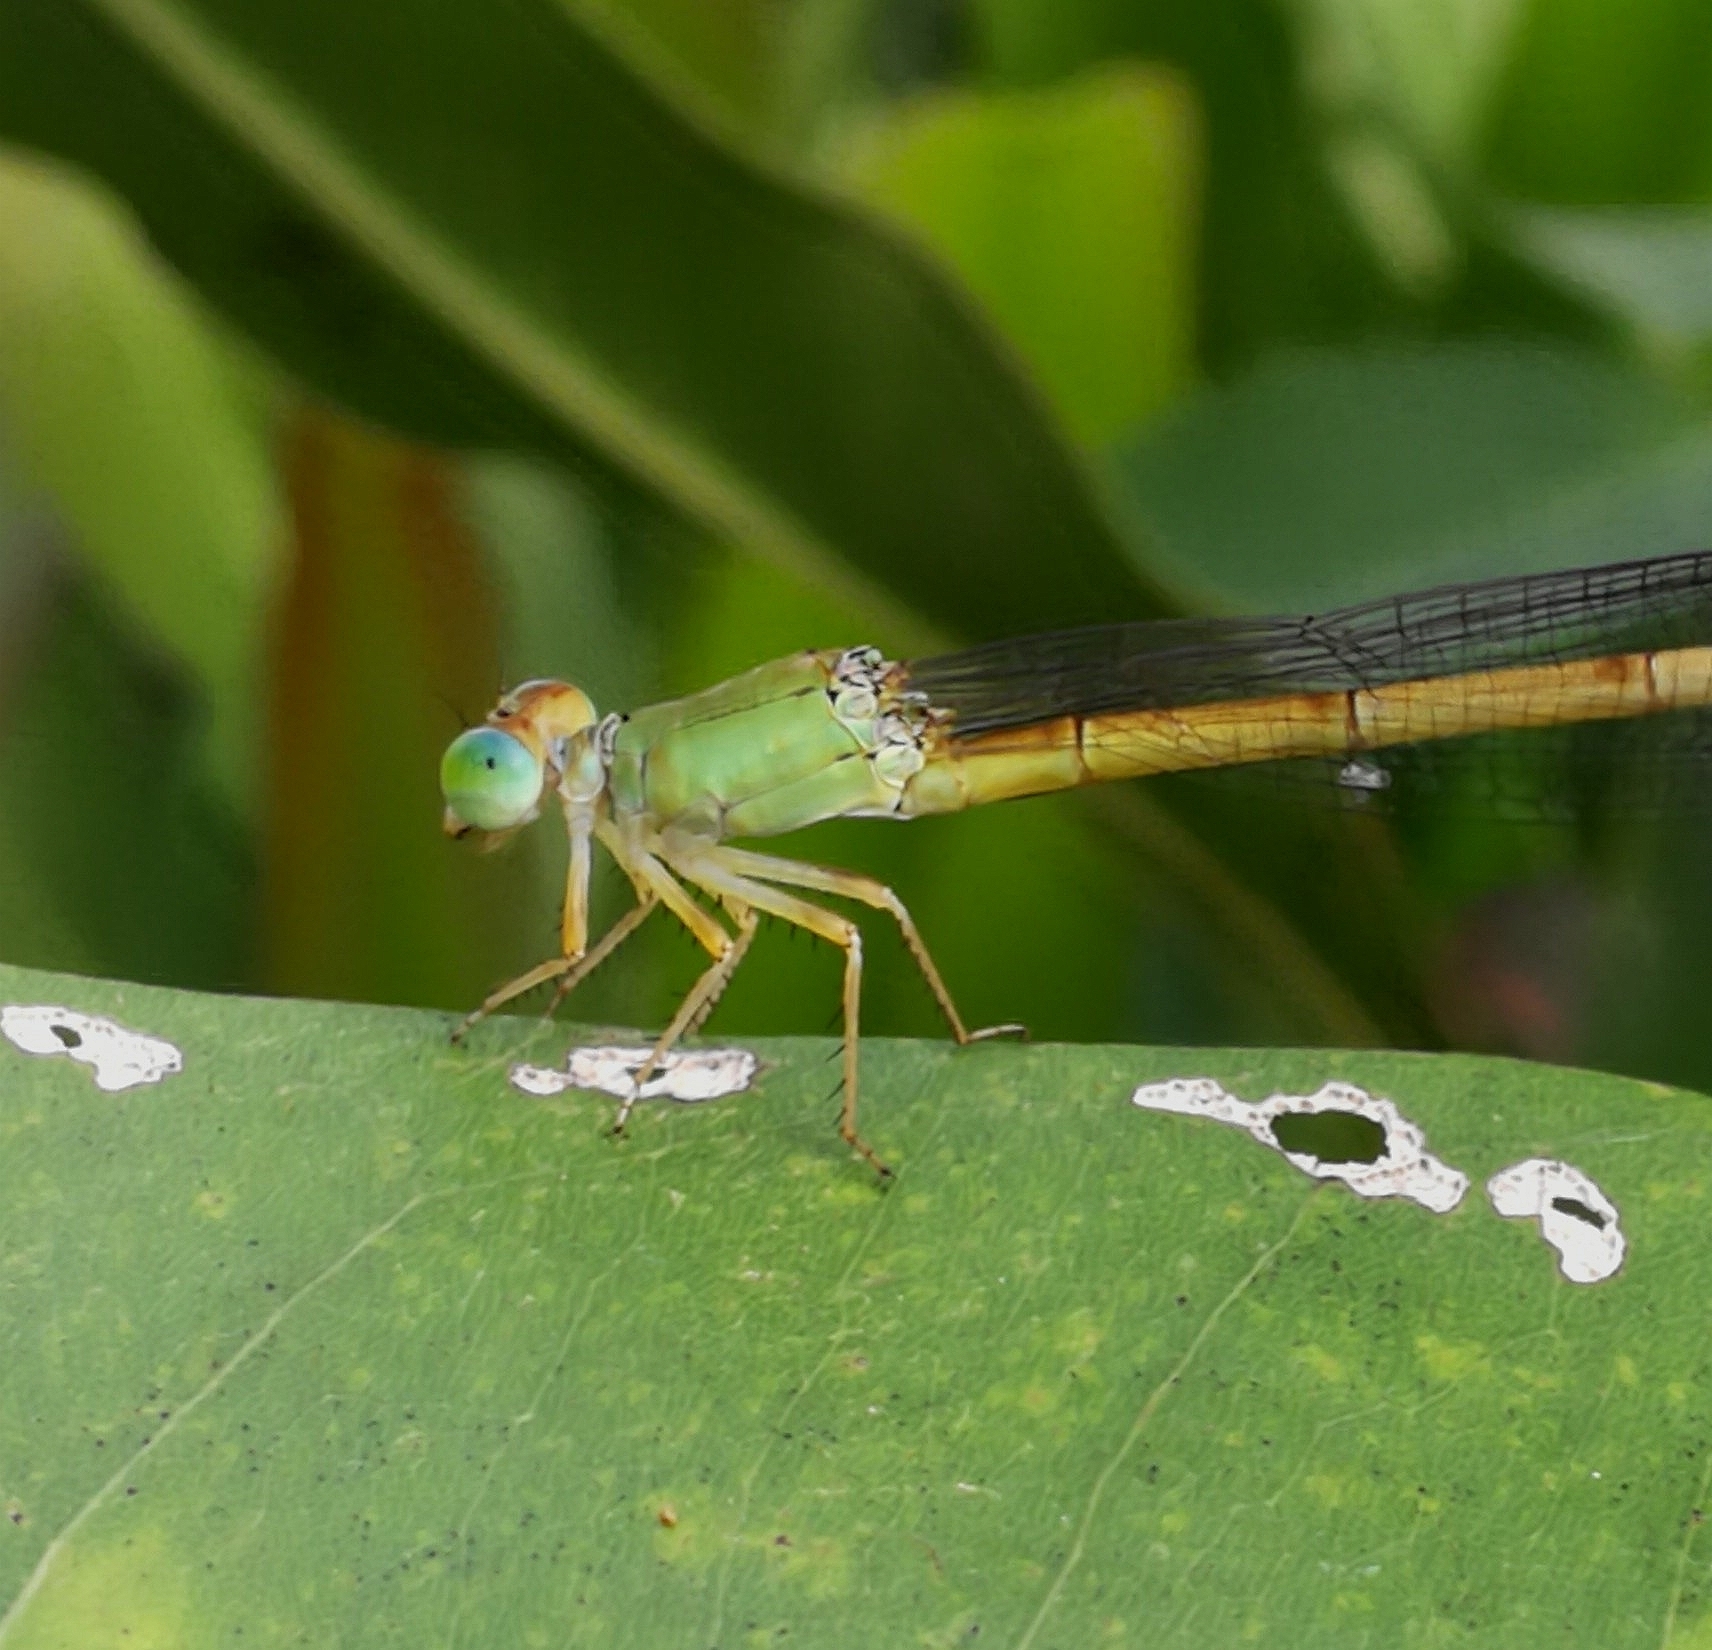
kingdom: Animalia
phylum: Arthropoda
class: Insecta
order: Odonata
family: Coenagrionidae
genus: Ceriagrion
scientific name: Ceriagrion coromandelianum
